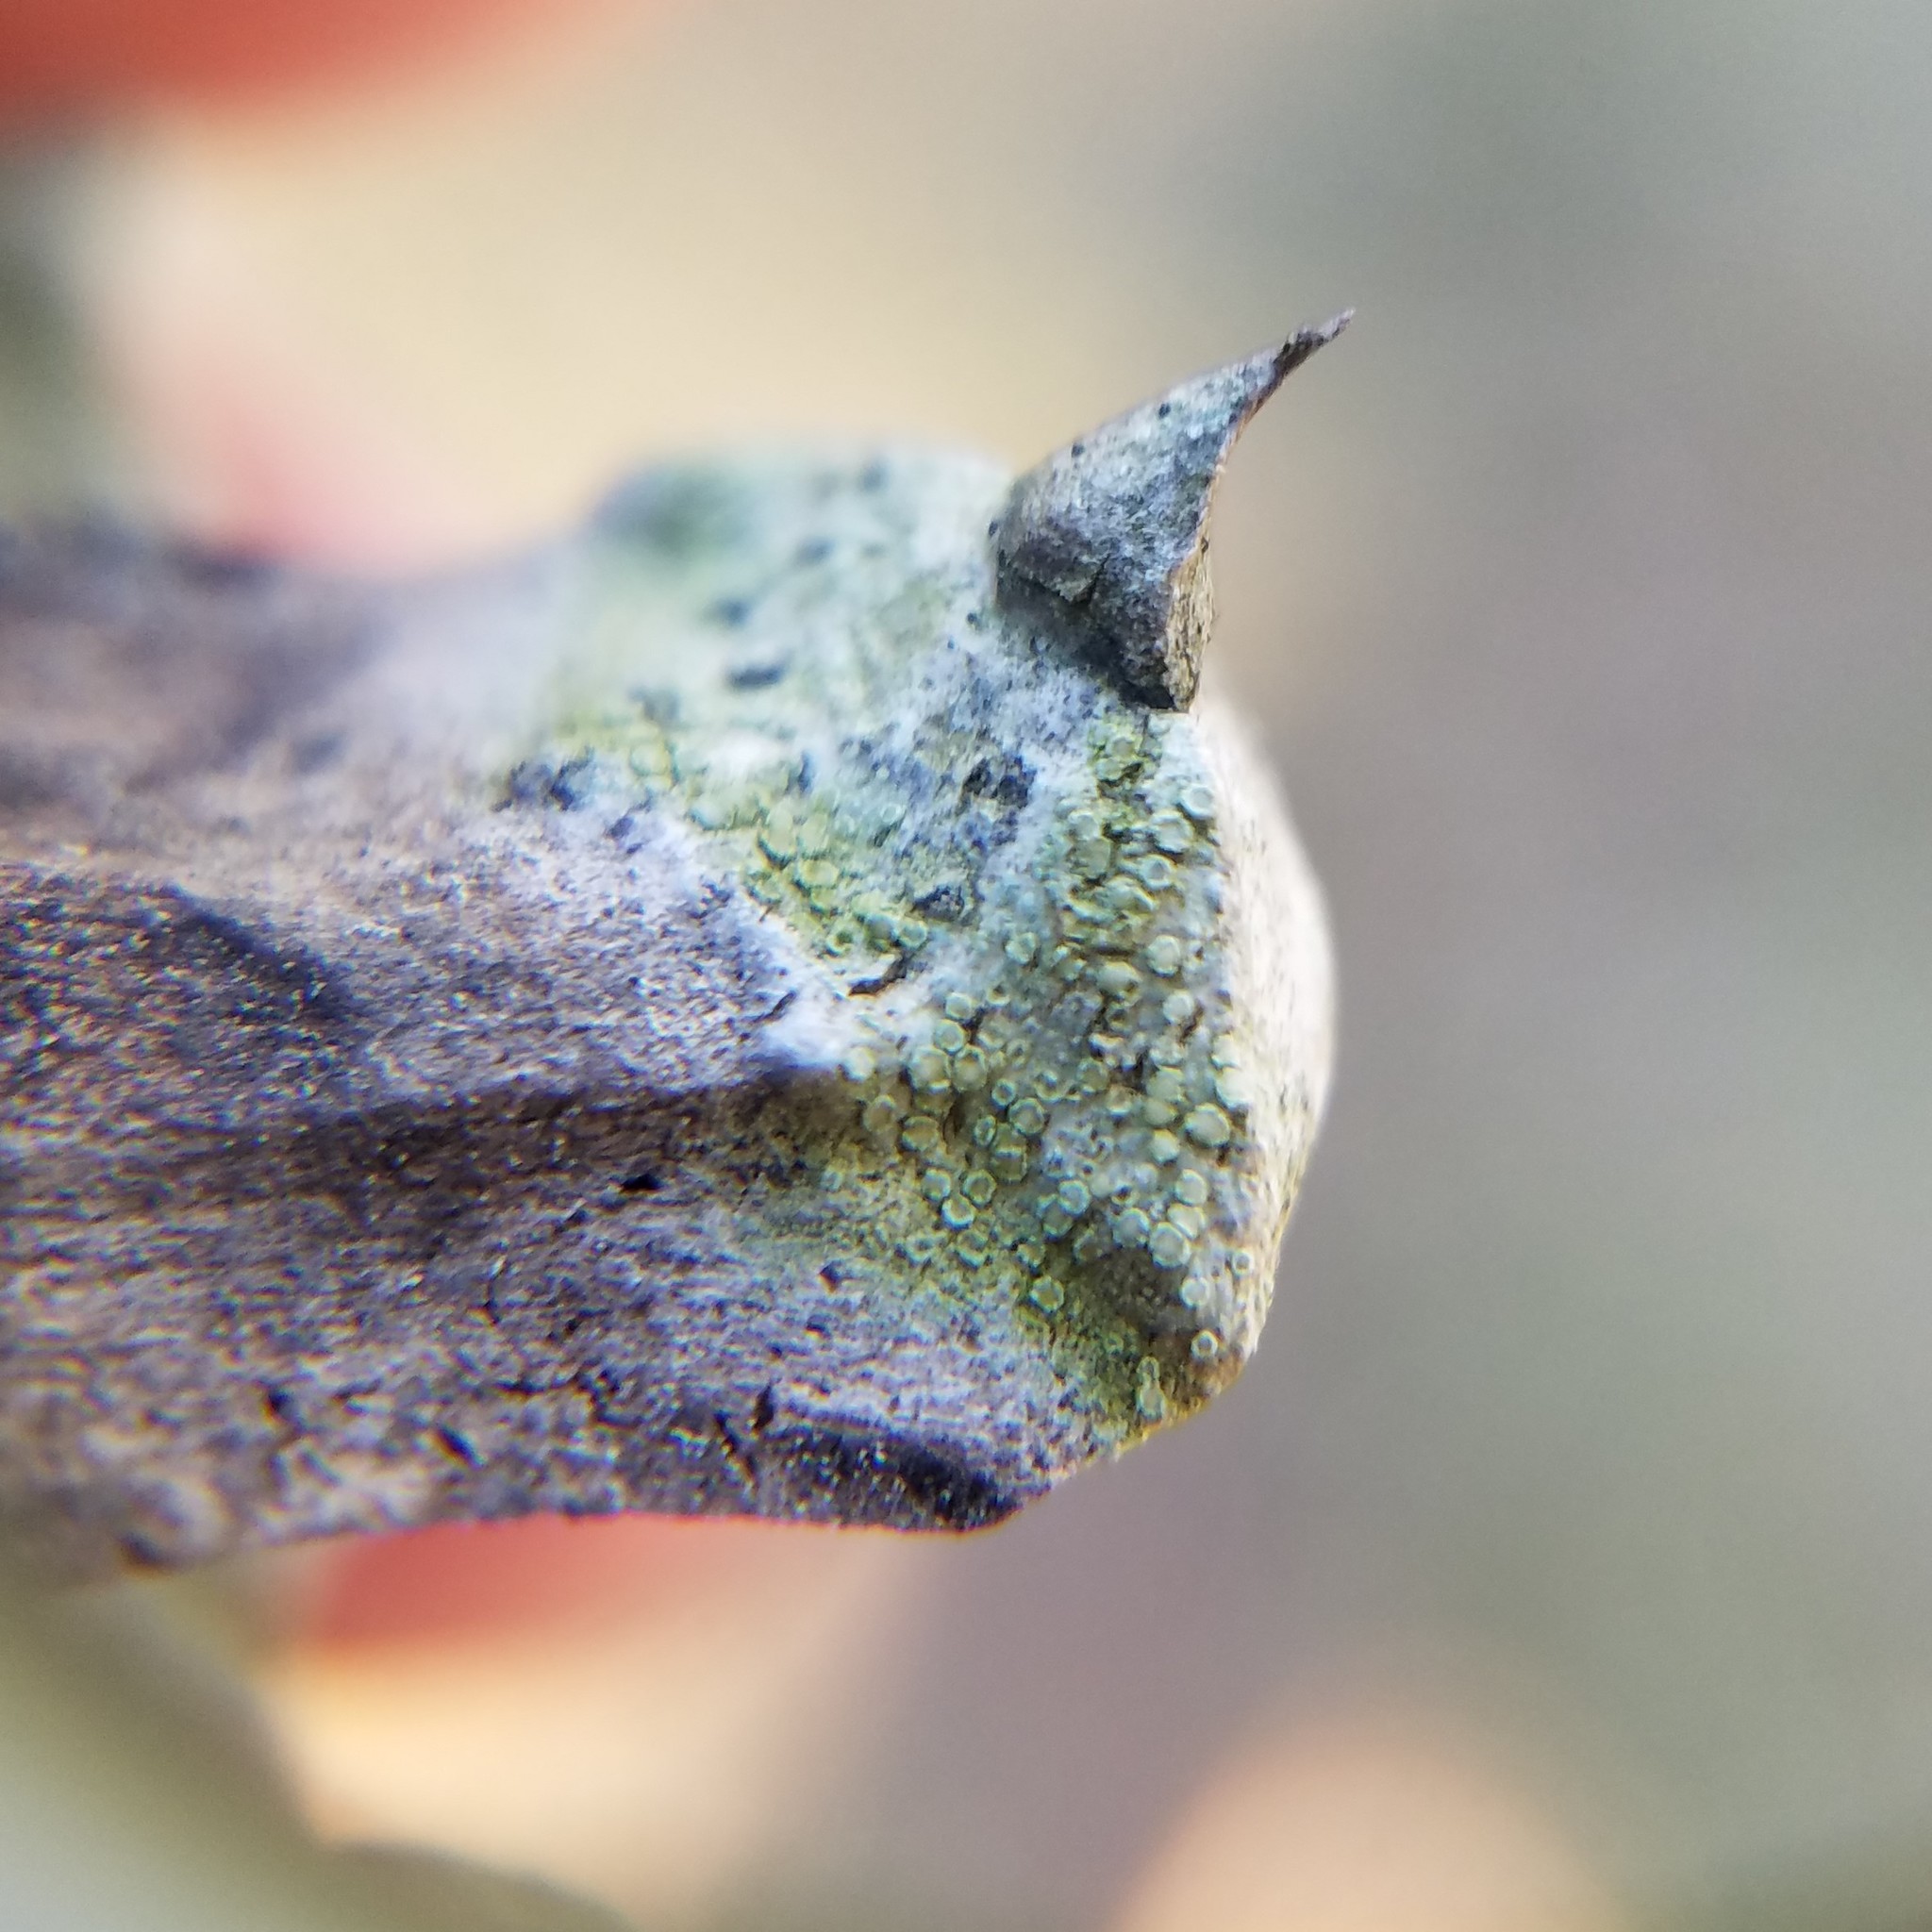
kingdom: Fungi
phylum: Ascomycota
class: Lecanoromycetes
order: Lecanorales
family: Lecanoraceae
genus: Lecanora
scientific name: Lecanora strobilina
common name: Mealy rim-lichen
